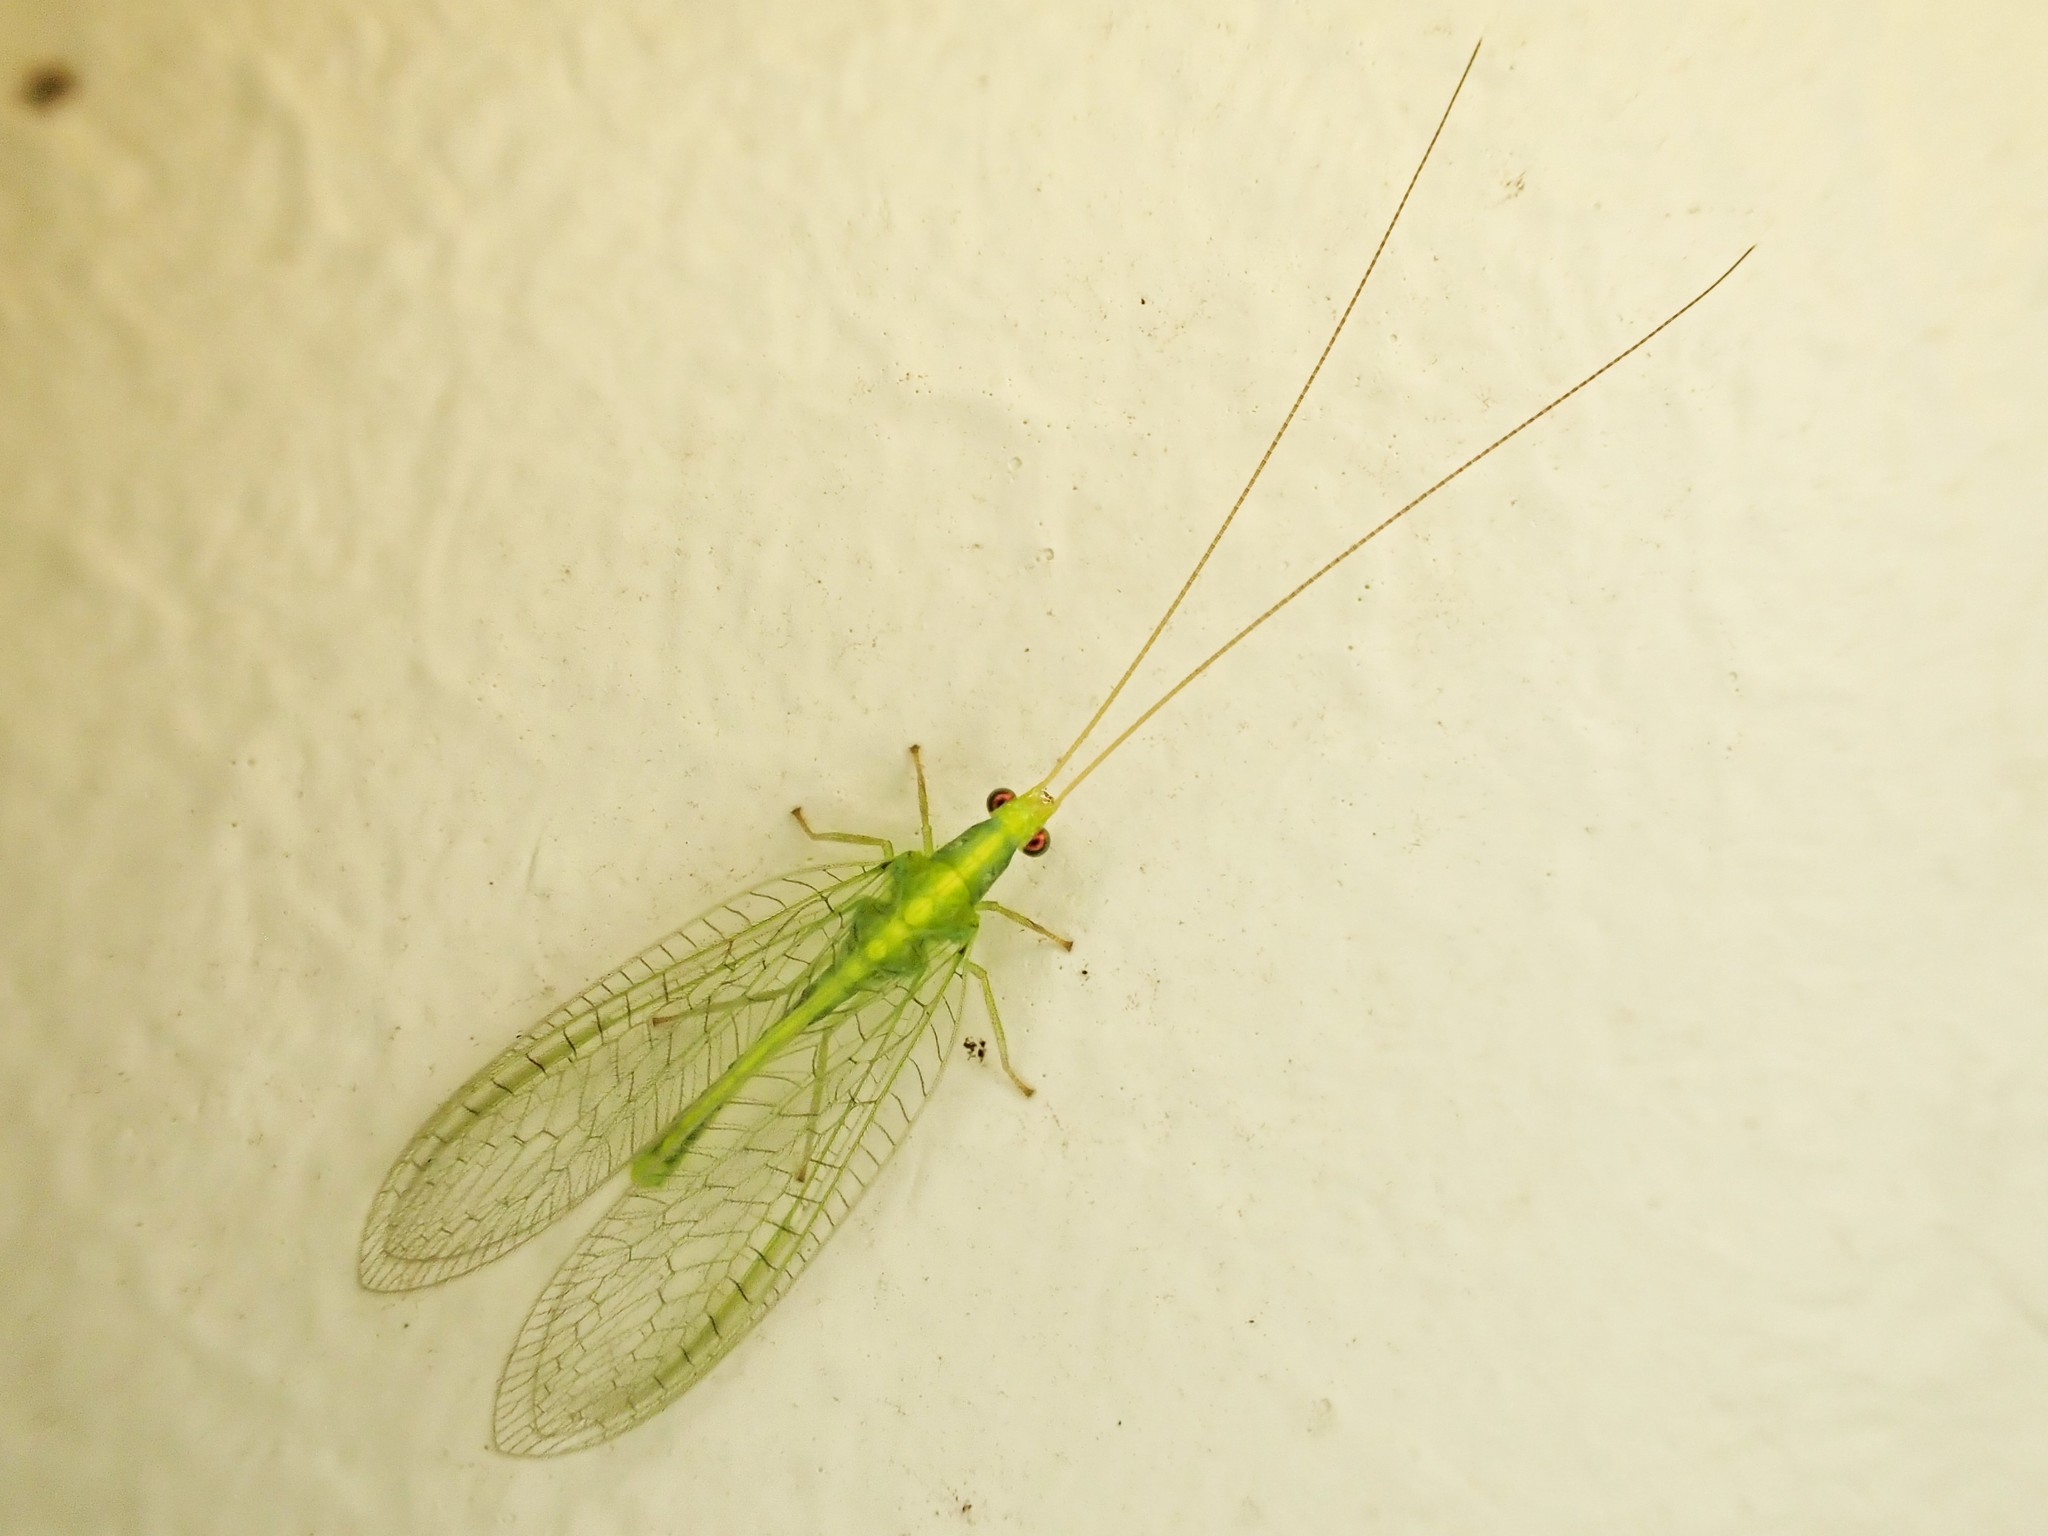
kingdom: Animalia
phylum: Arthropoda
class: Insecta
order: Neuroptera
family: Chrysopidae
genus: Mallada
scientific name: Mallada basalis
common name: Green lacewing
